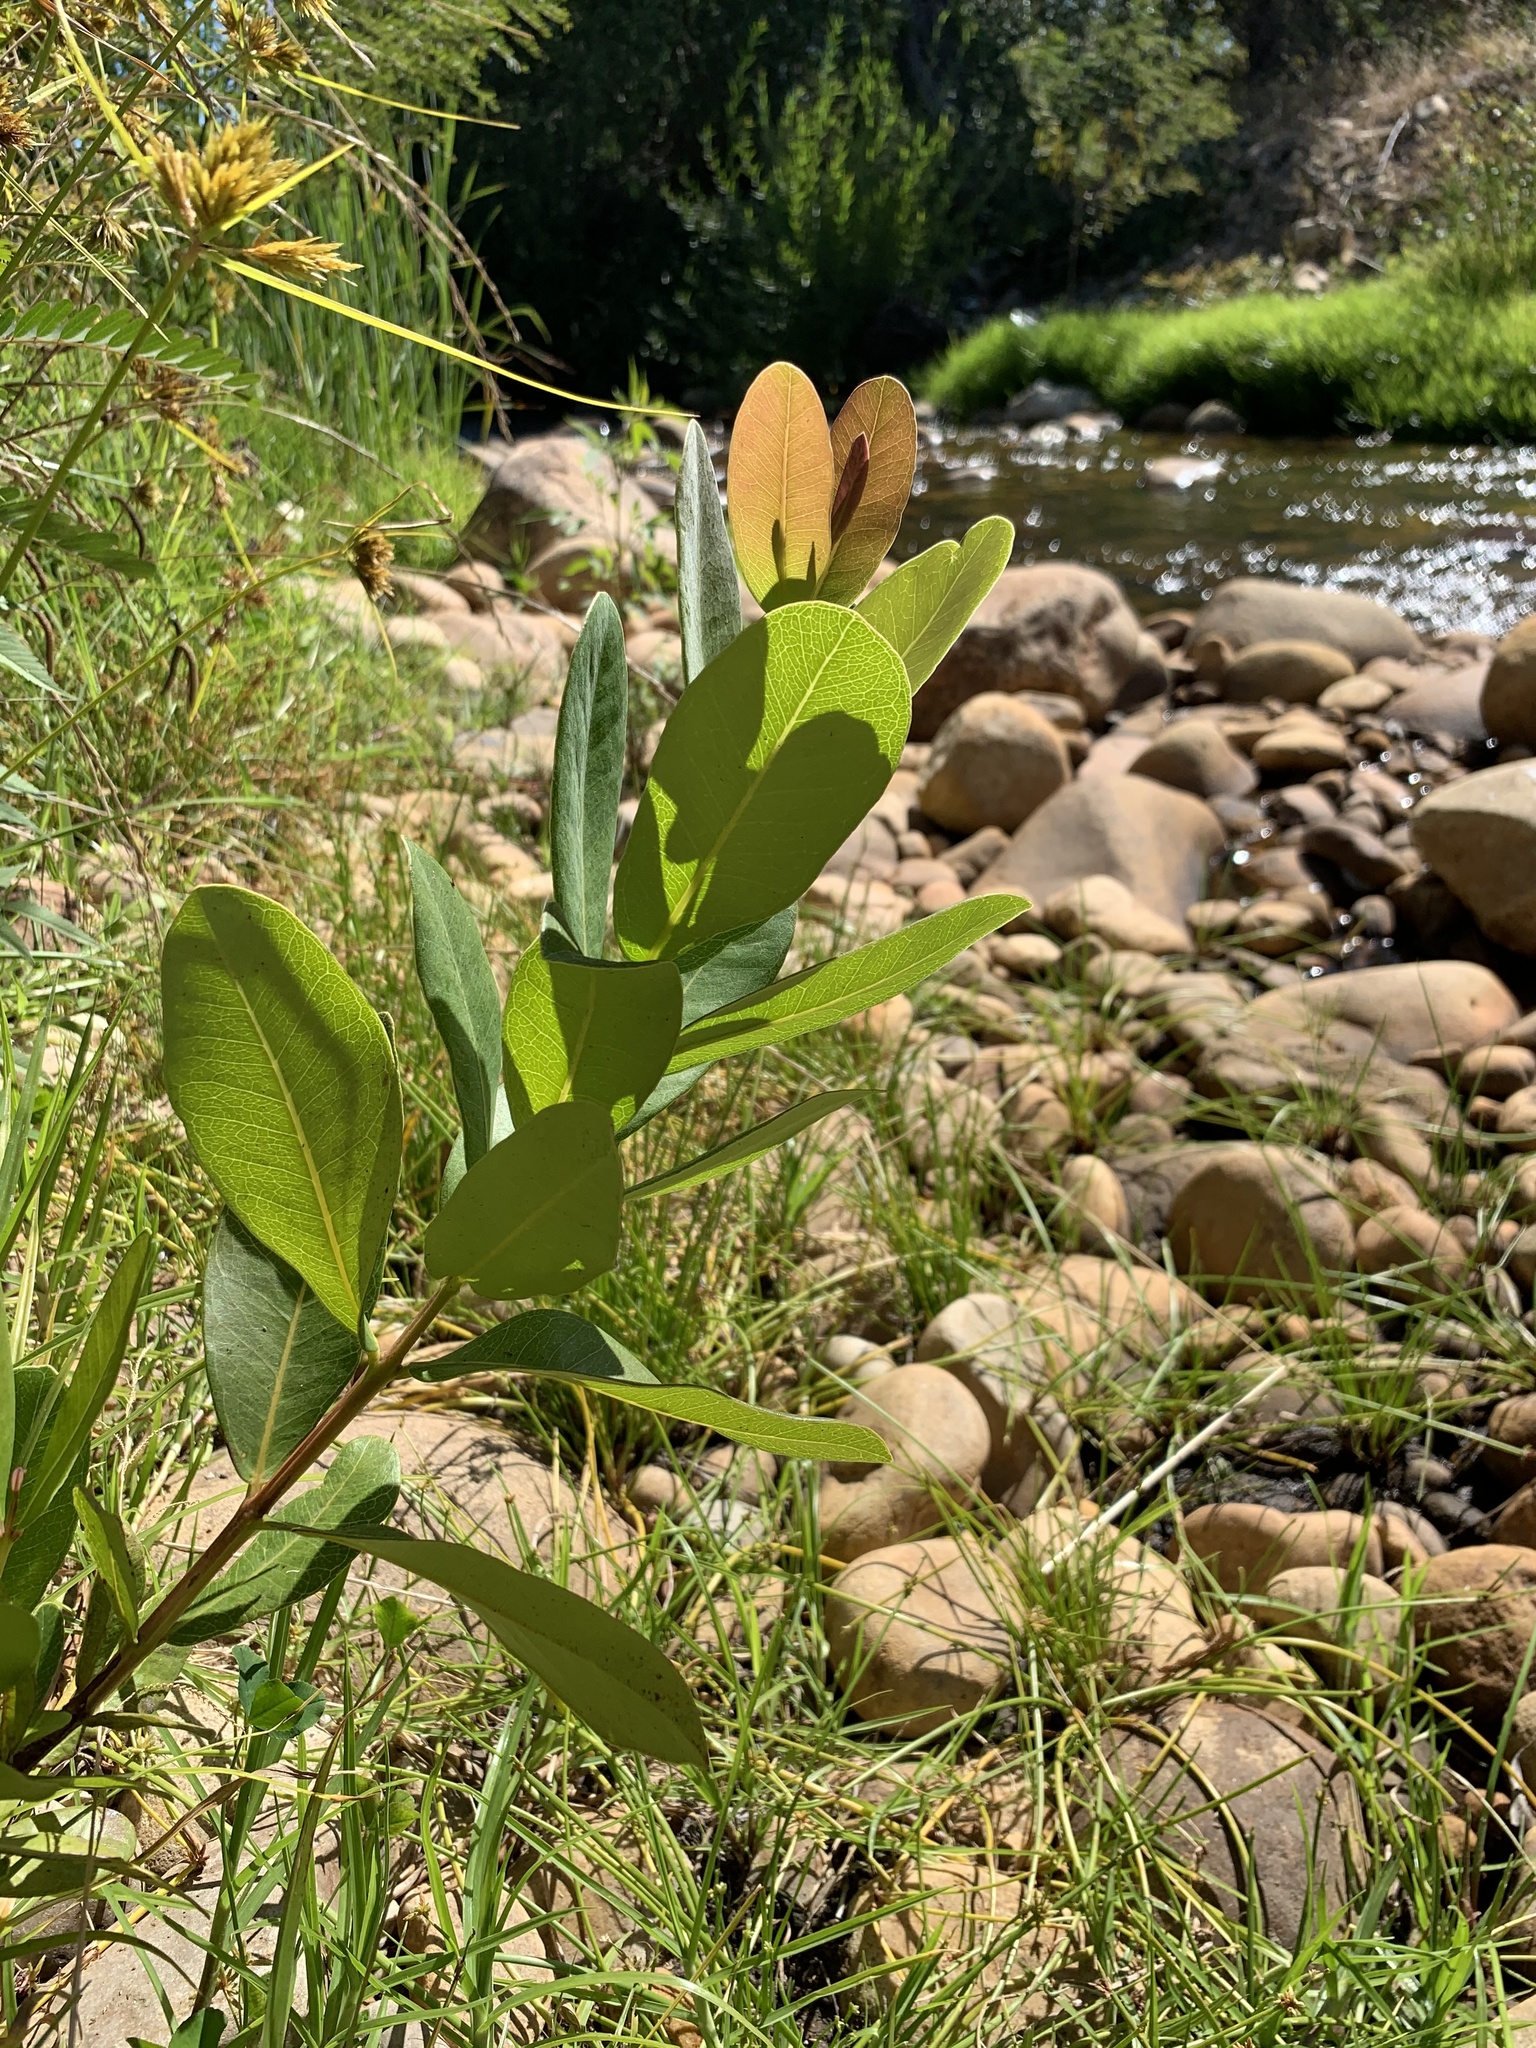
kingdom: Plantae
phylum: Tracheophyta
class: Magnoliopsida
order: Myrtales
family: Myrtaceae
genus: Syzygium
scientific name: Syzygium cordatum
